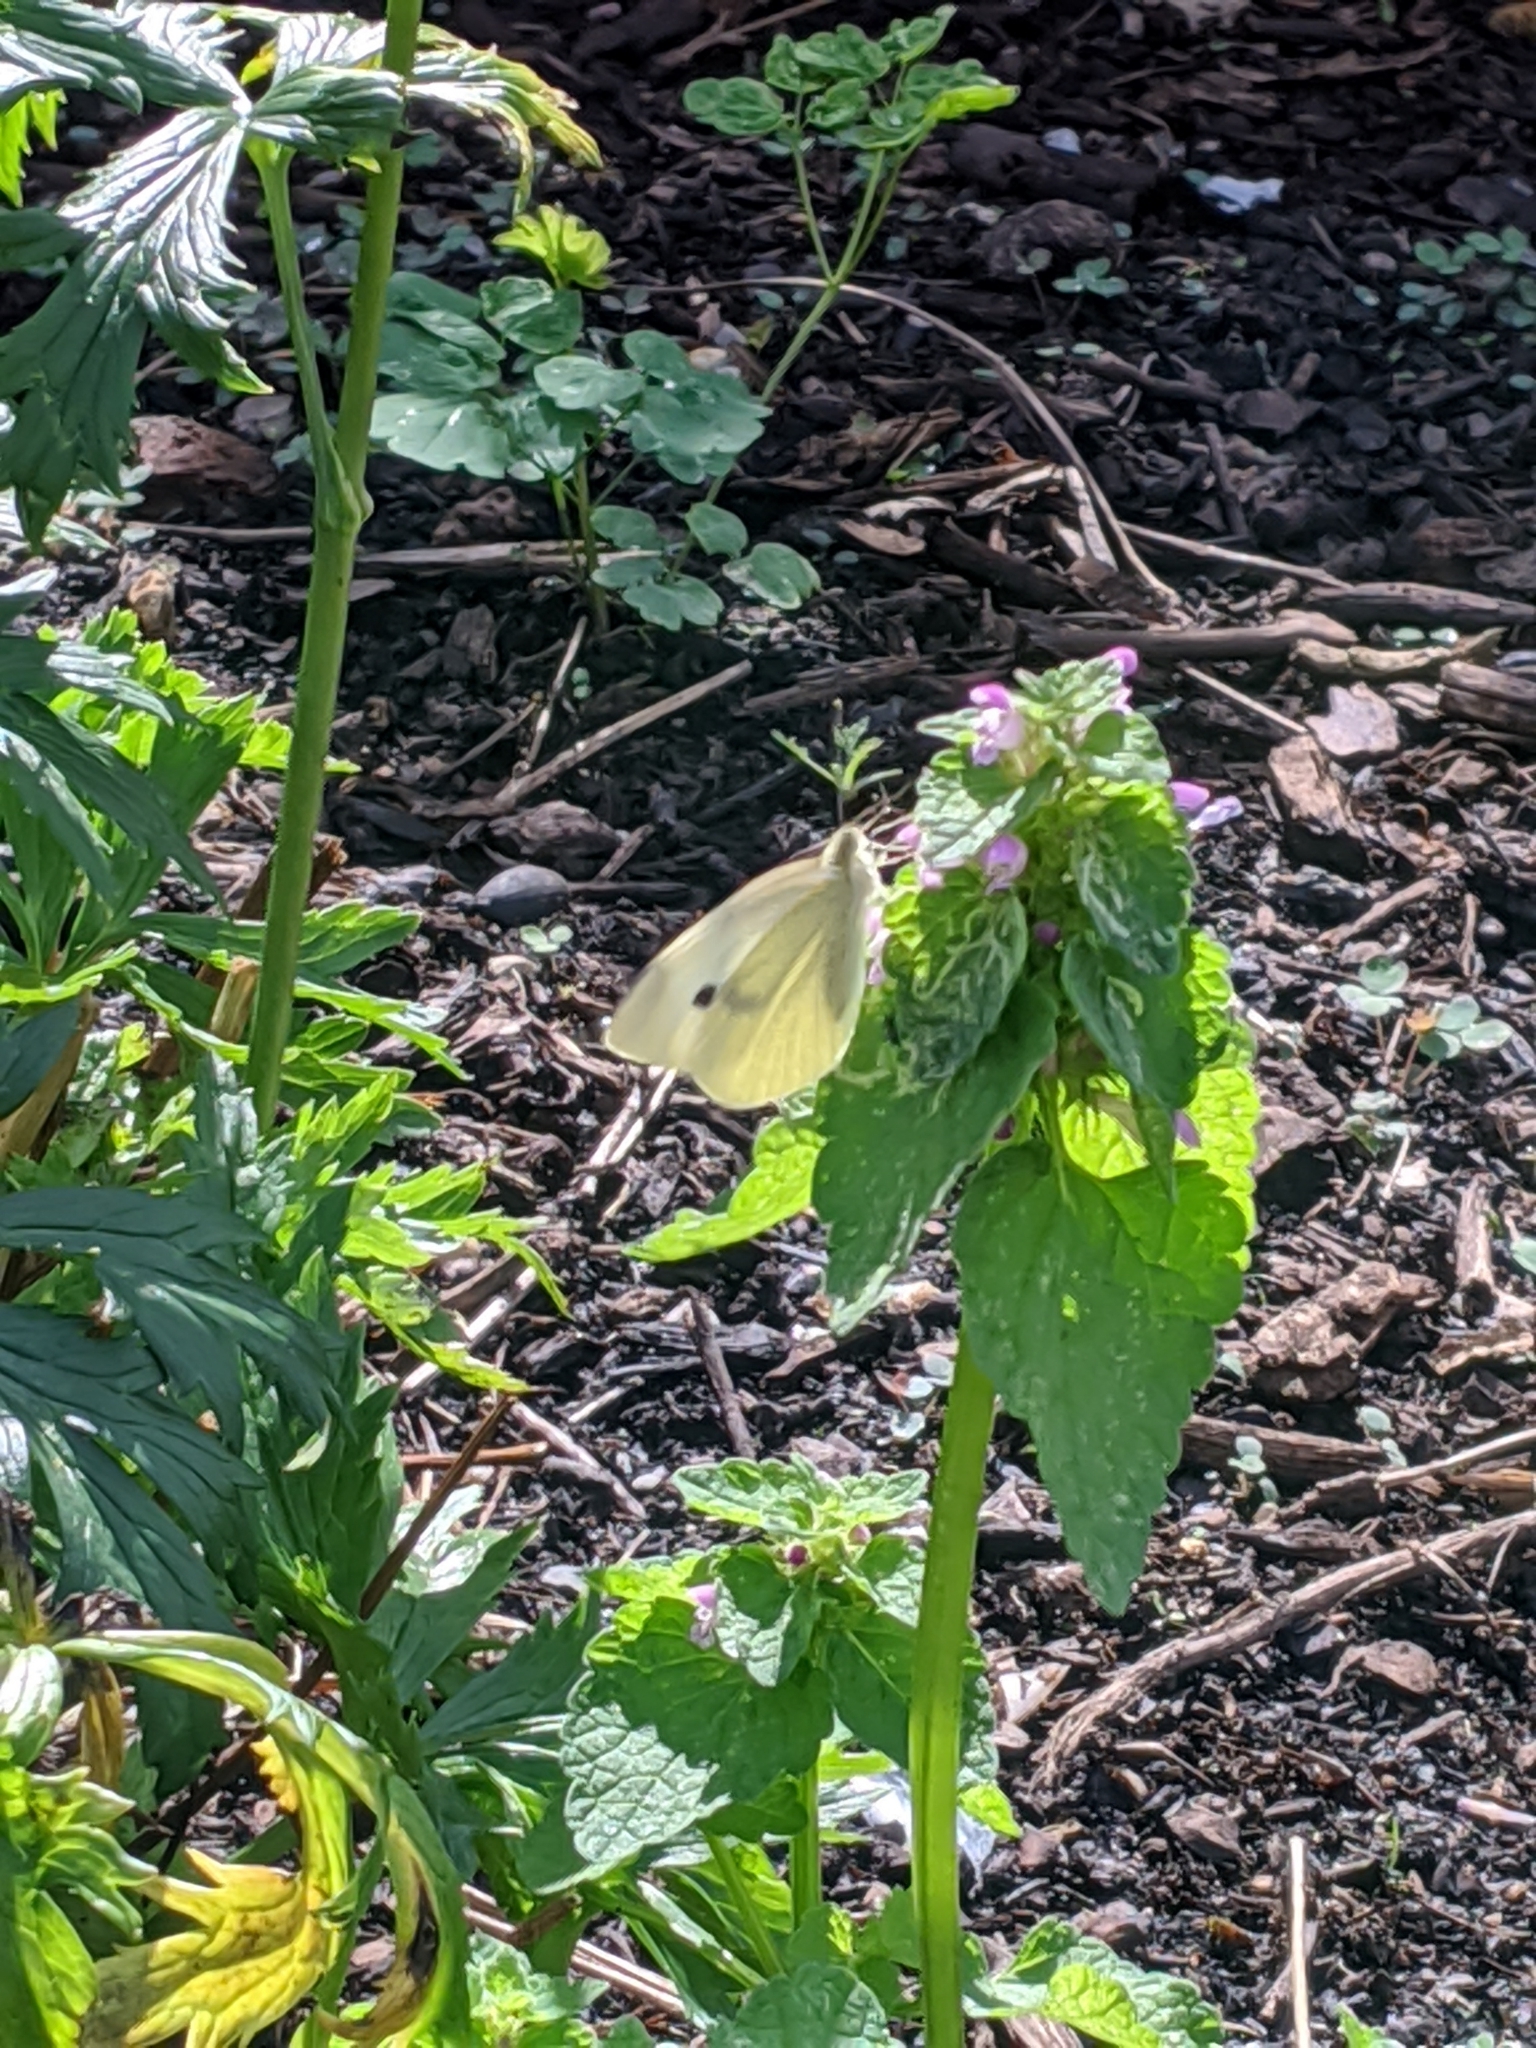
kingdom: Animalia
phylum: Arthropoda
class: Insecta
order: Lepidoptera
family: Pieridae
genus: Pieris
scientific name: Pieris rapae
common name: Small white
